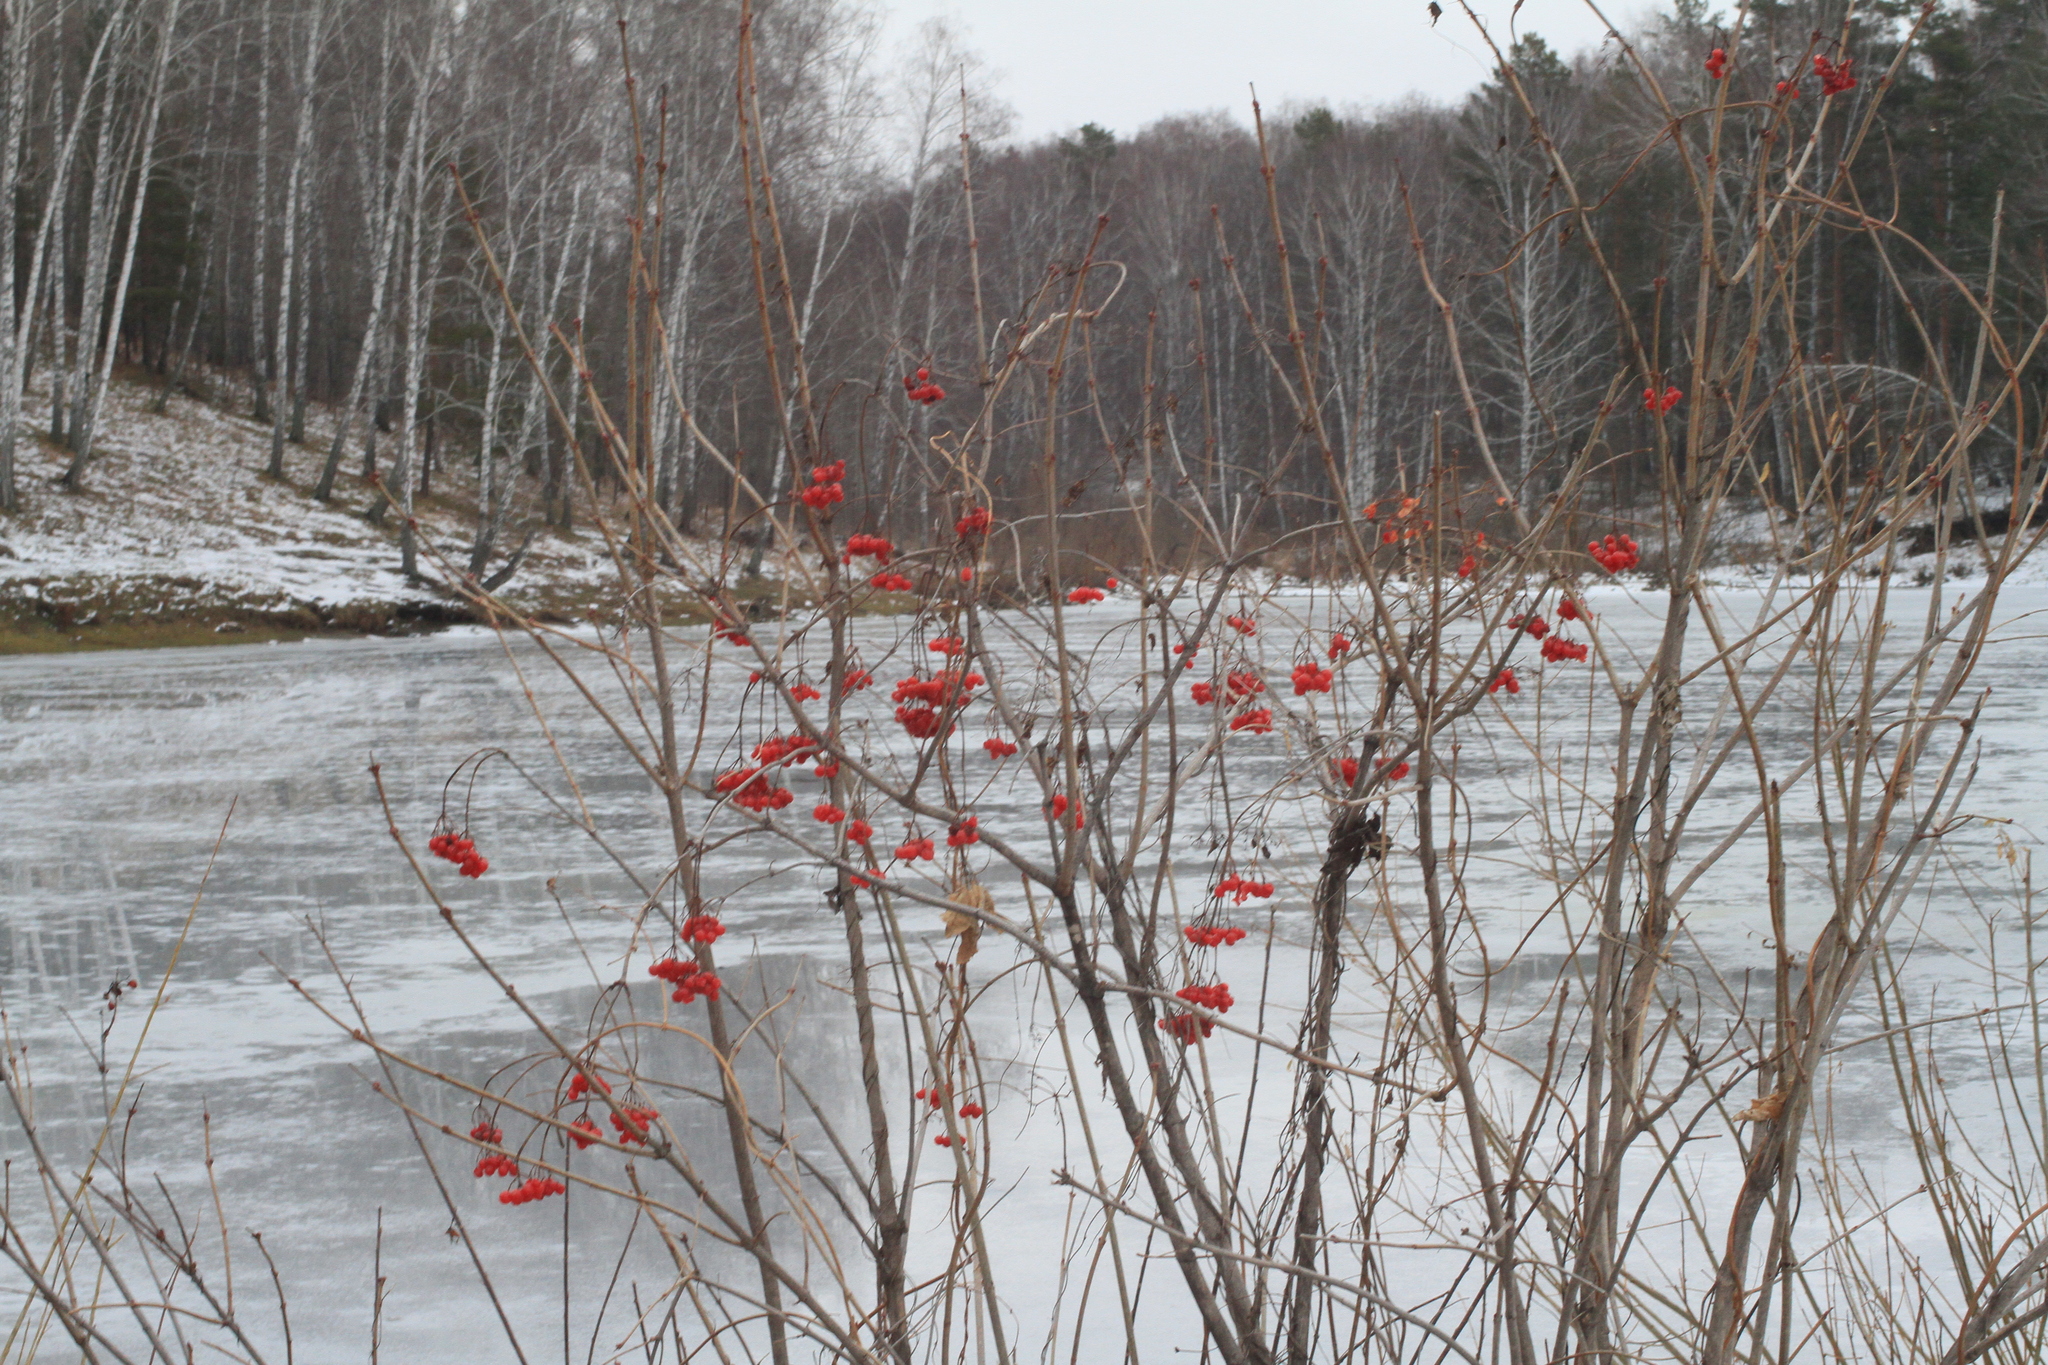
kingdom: Plantae
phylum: Tracheophyta
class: Magnoliopsida
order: Dipsacales
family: Viburnaceae
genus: Viburnum
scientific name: Viburnum opulus
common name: Guelder-rose
